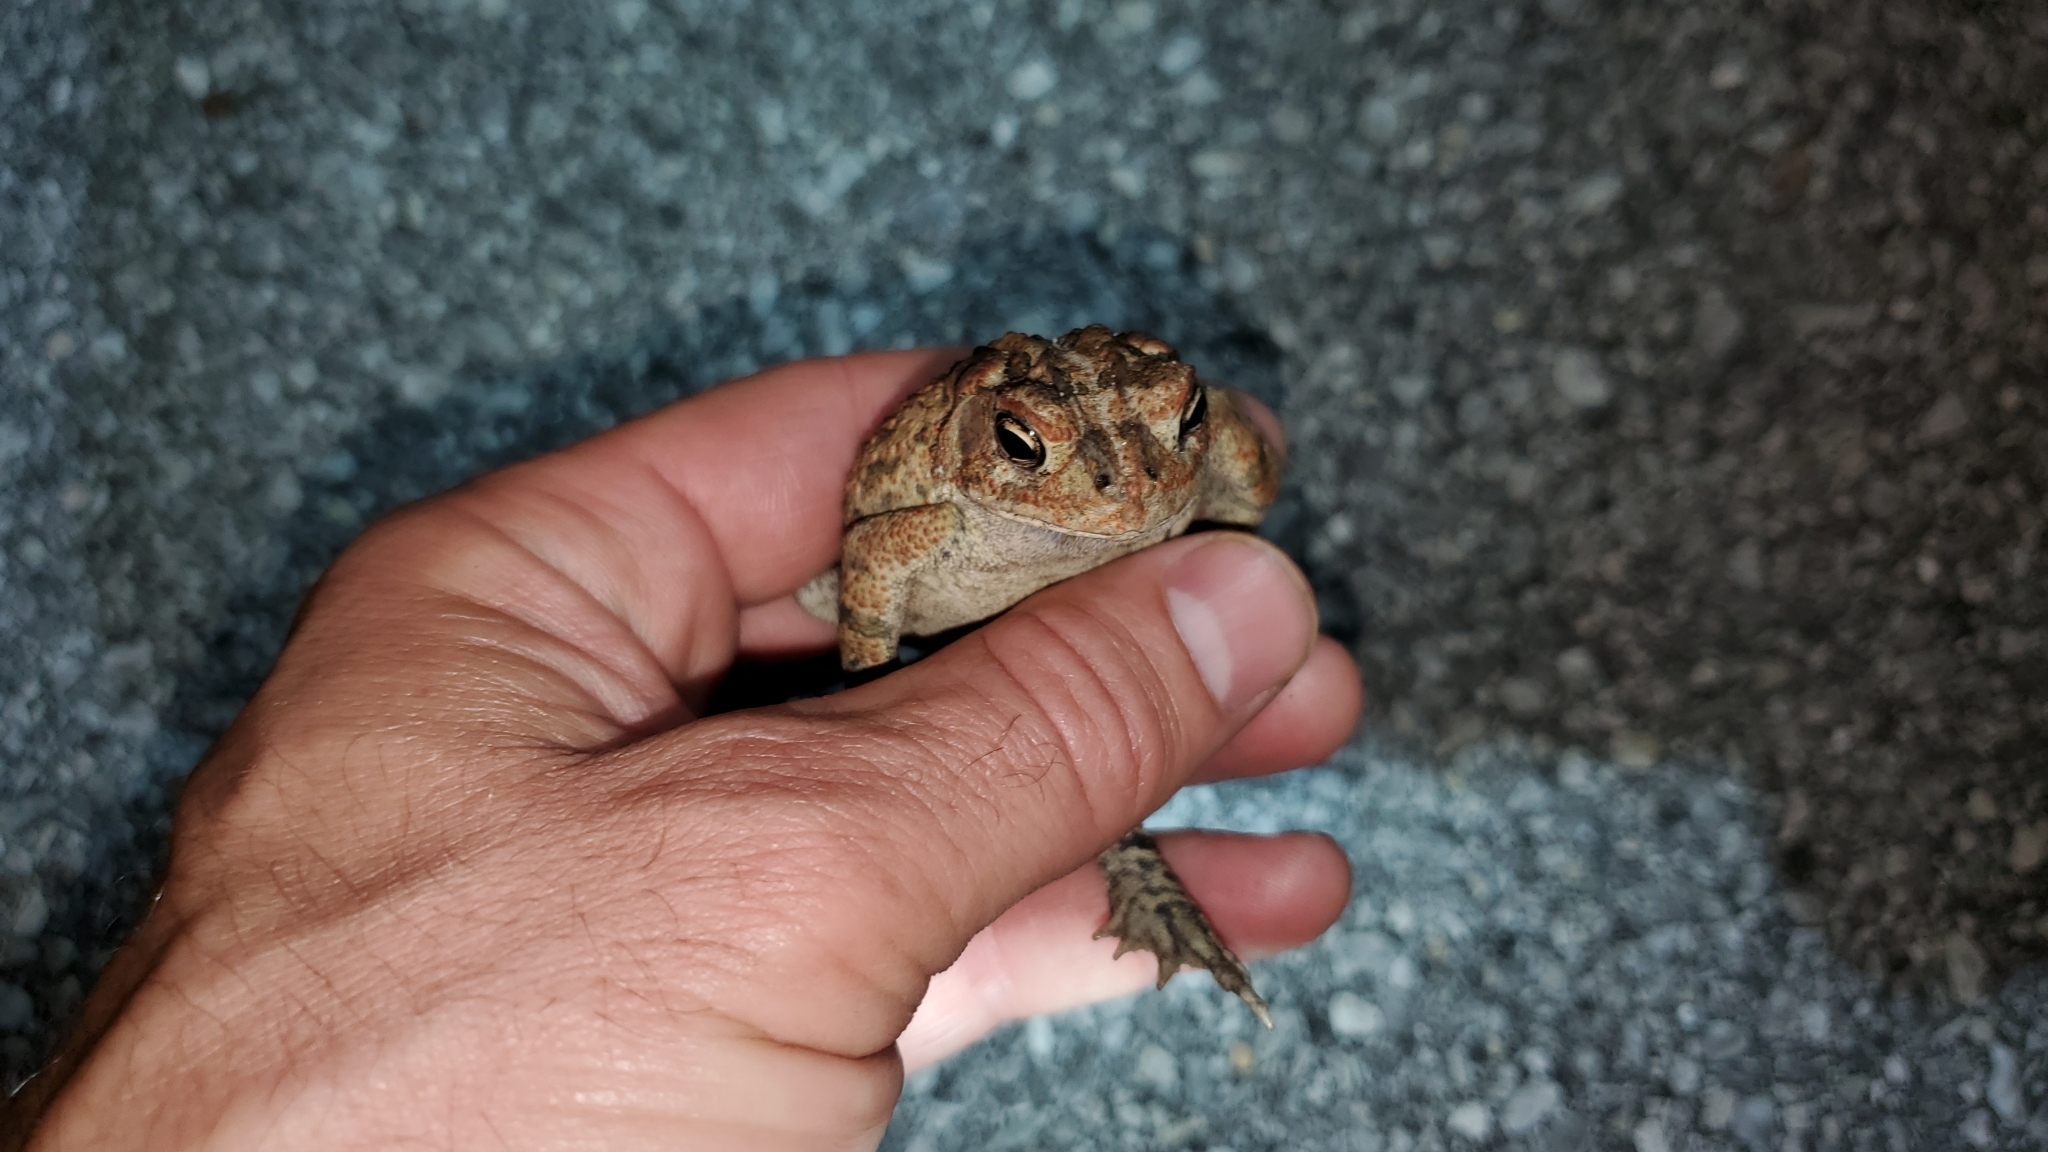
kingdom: Animalia
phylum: Chordata
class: Amphibia
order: Anura
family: Bufonidae
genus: Anaxyrus
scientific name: Anaxyrus terrestris
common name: Southern toad
